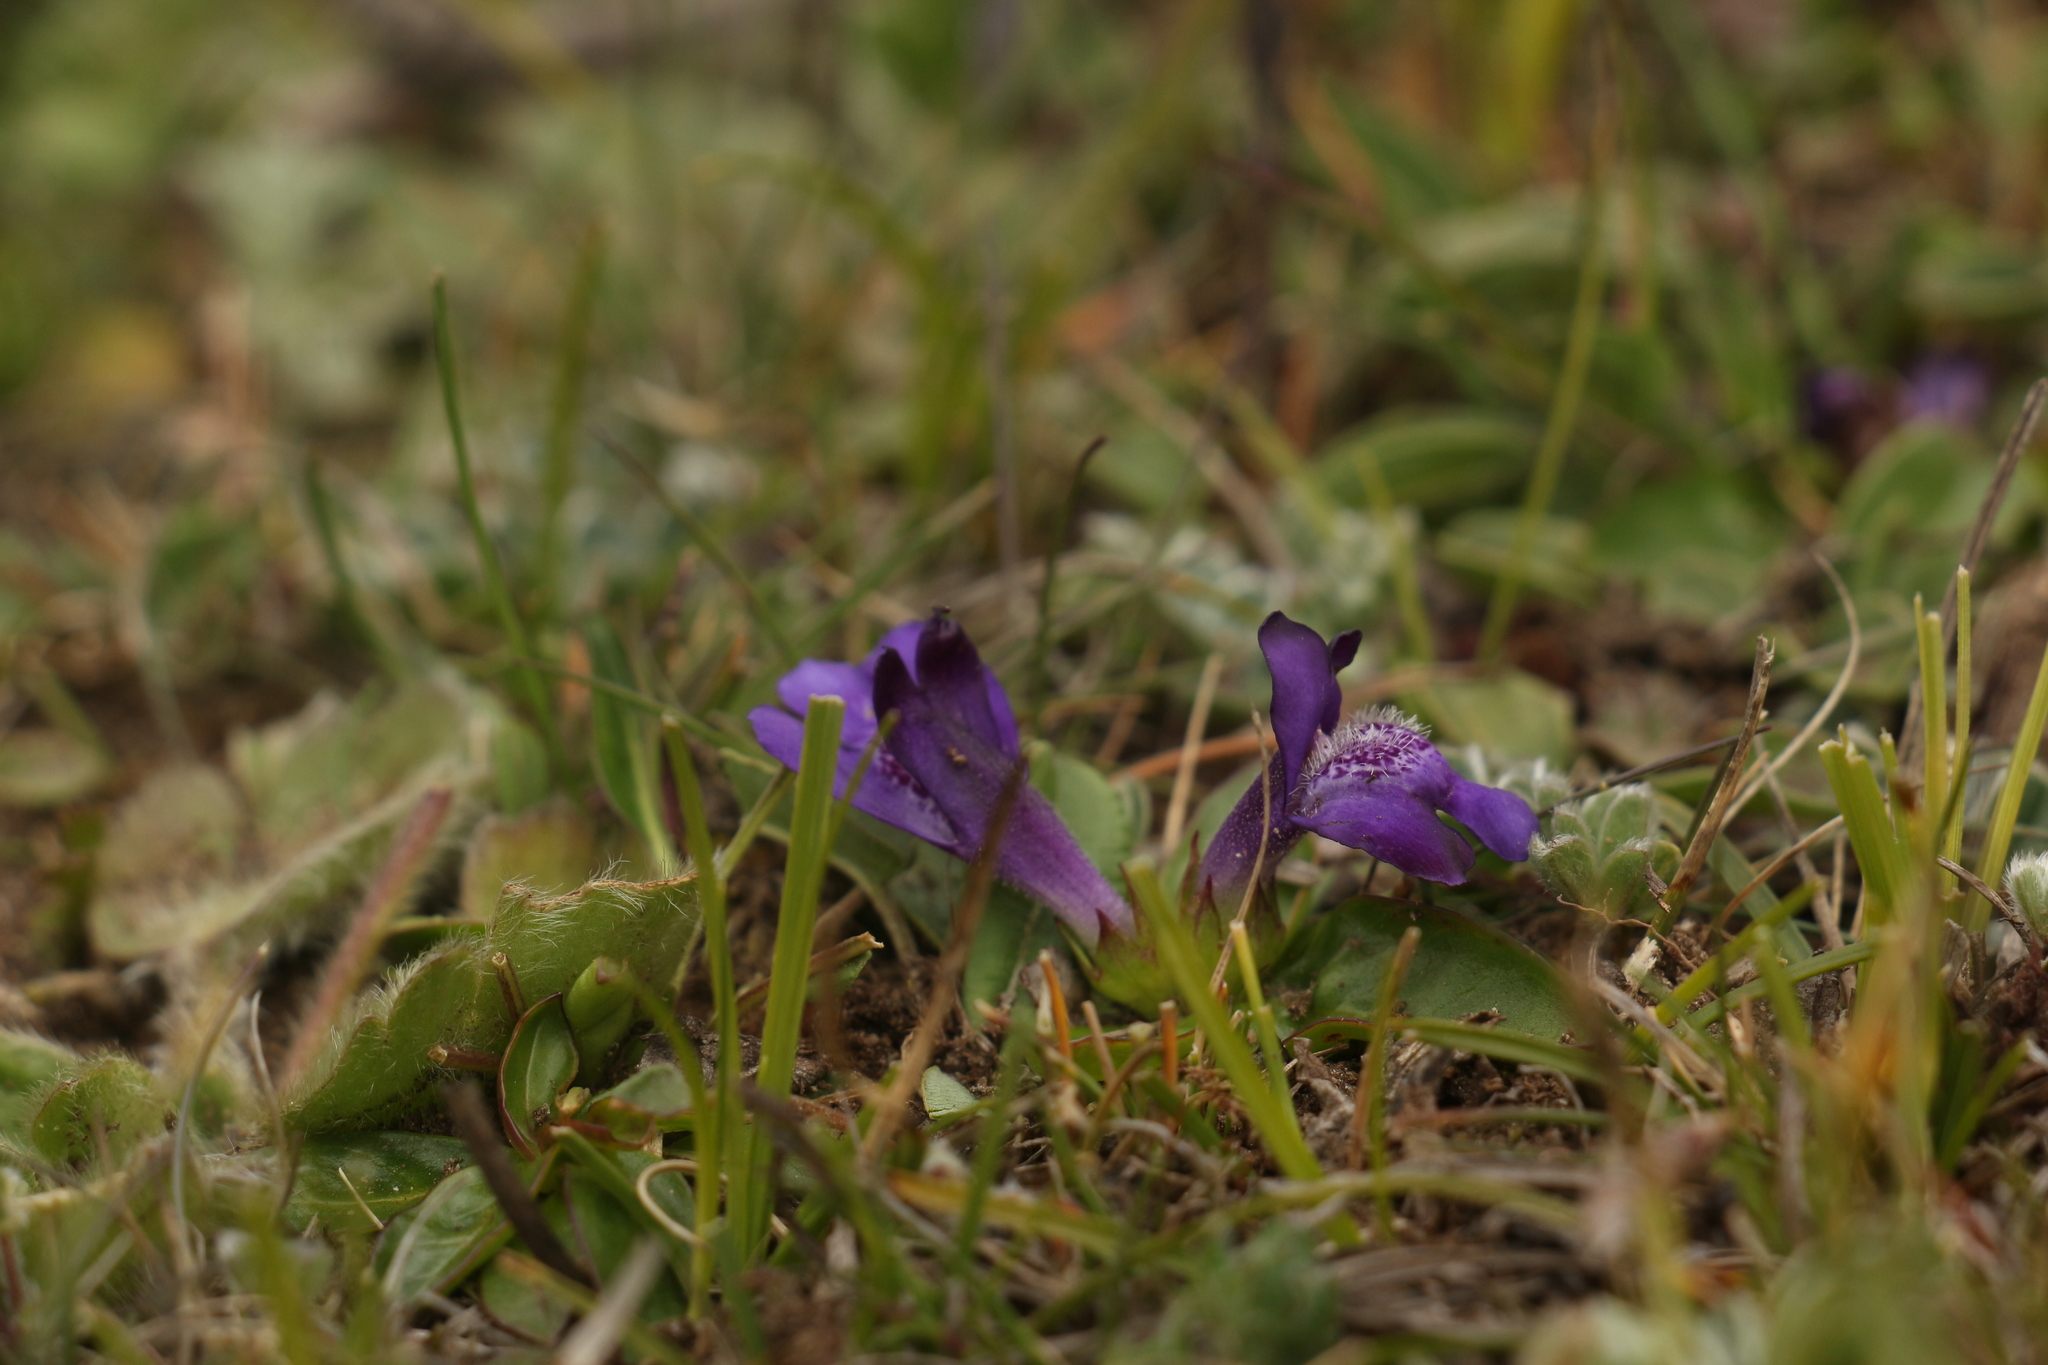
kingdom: Plantae
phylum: Tracheophyta
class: Magnoliopsida
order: Lamiales
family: Mazaceae
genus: Lancea
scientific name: Lancea tibetica
